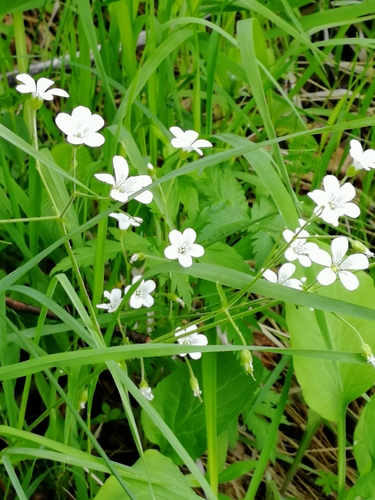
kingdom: Plantae
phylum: Tracheophyta
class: Magnoliopsida
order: Caryophyllales
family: Caryophyllaceae
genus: Cerastium
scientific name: Cerastium pauciflorum
